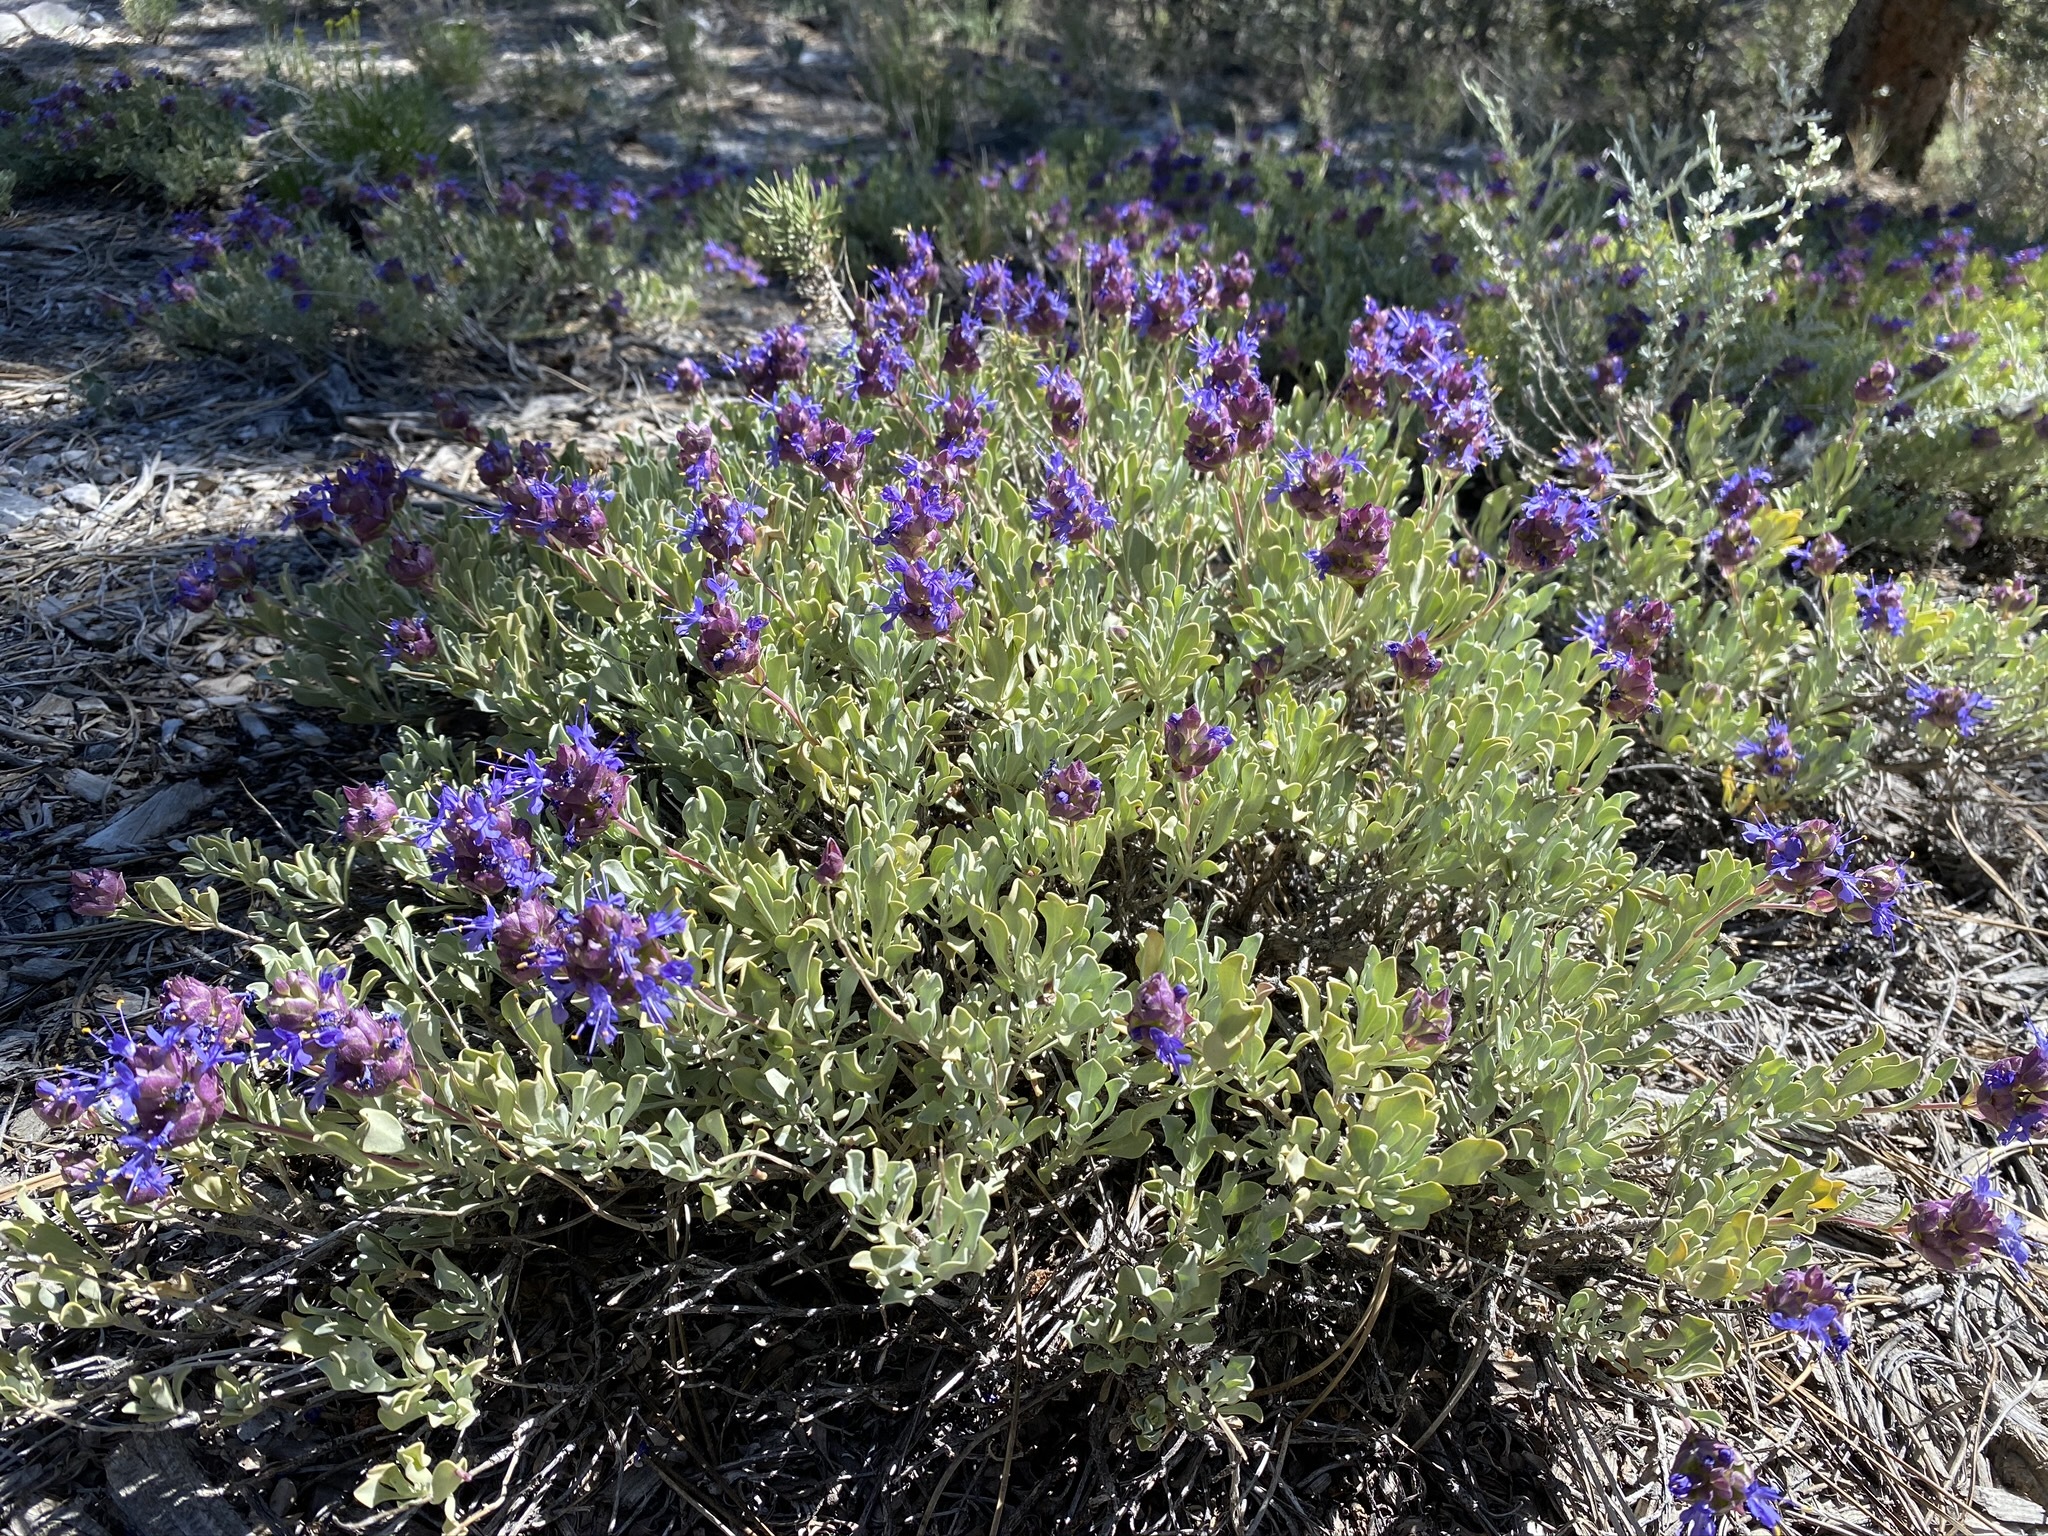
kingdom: Plantae
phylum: Tracheophyta
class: Magnoliopsida
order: Lamiales
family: Lamiaceae
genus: Salvia
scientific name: Salvia dorrii
